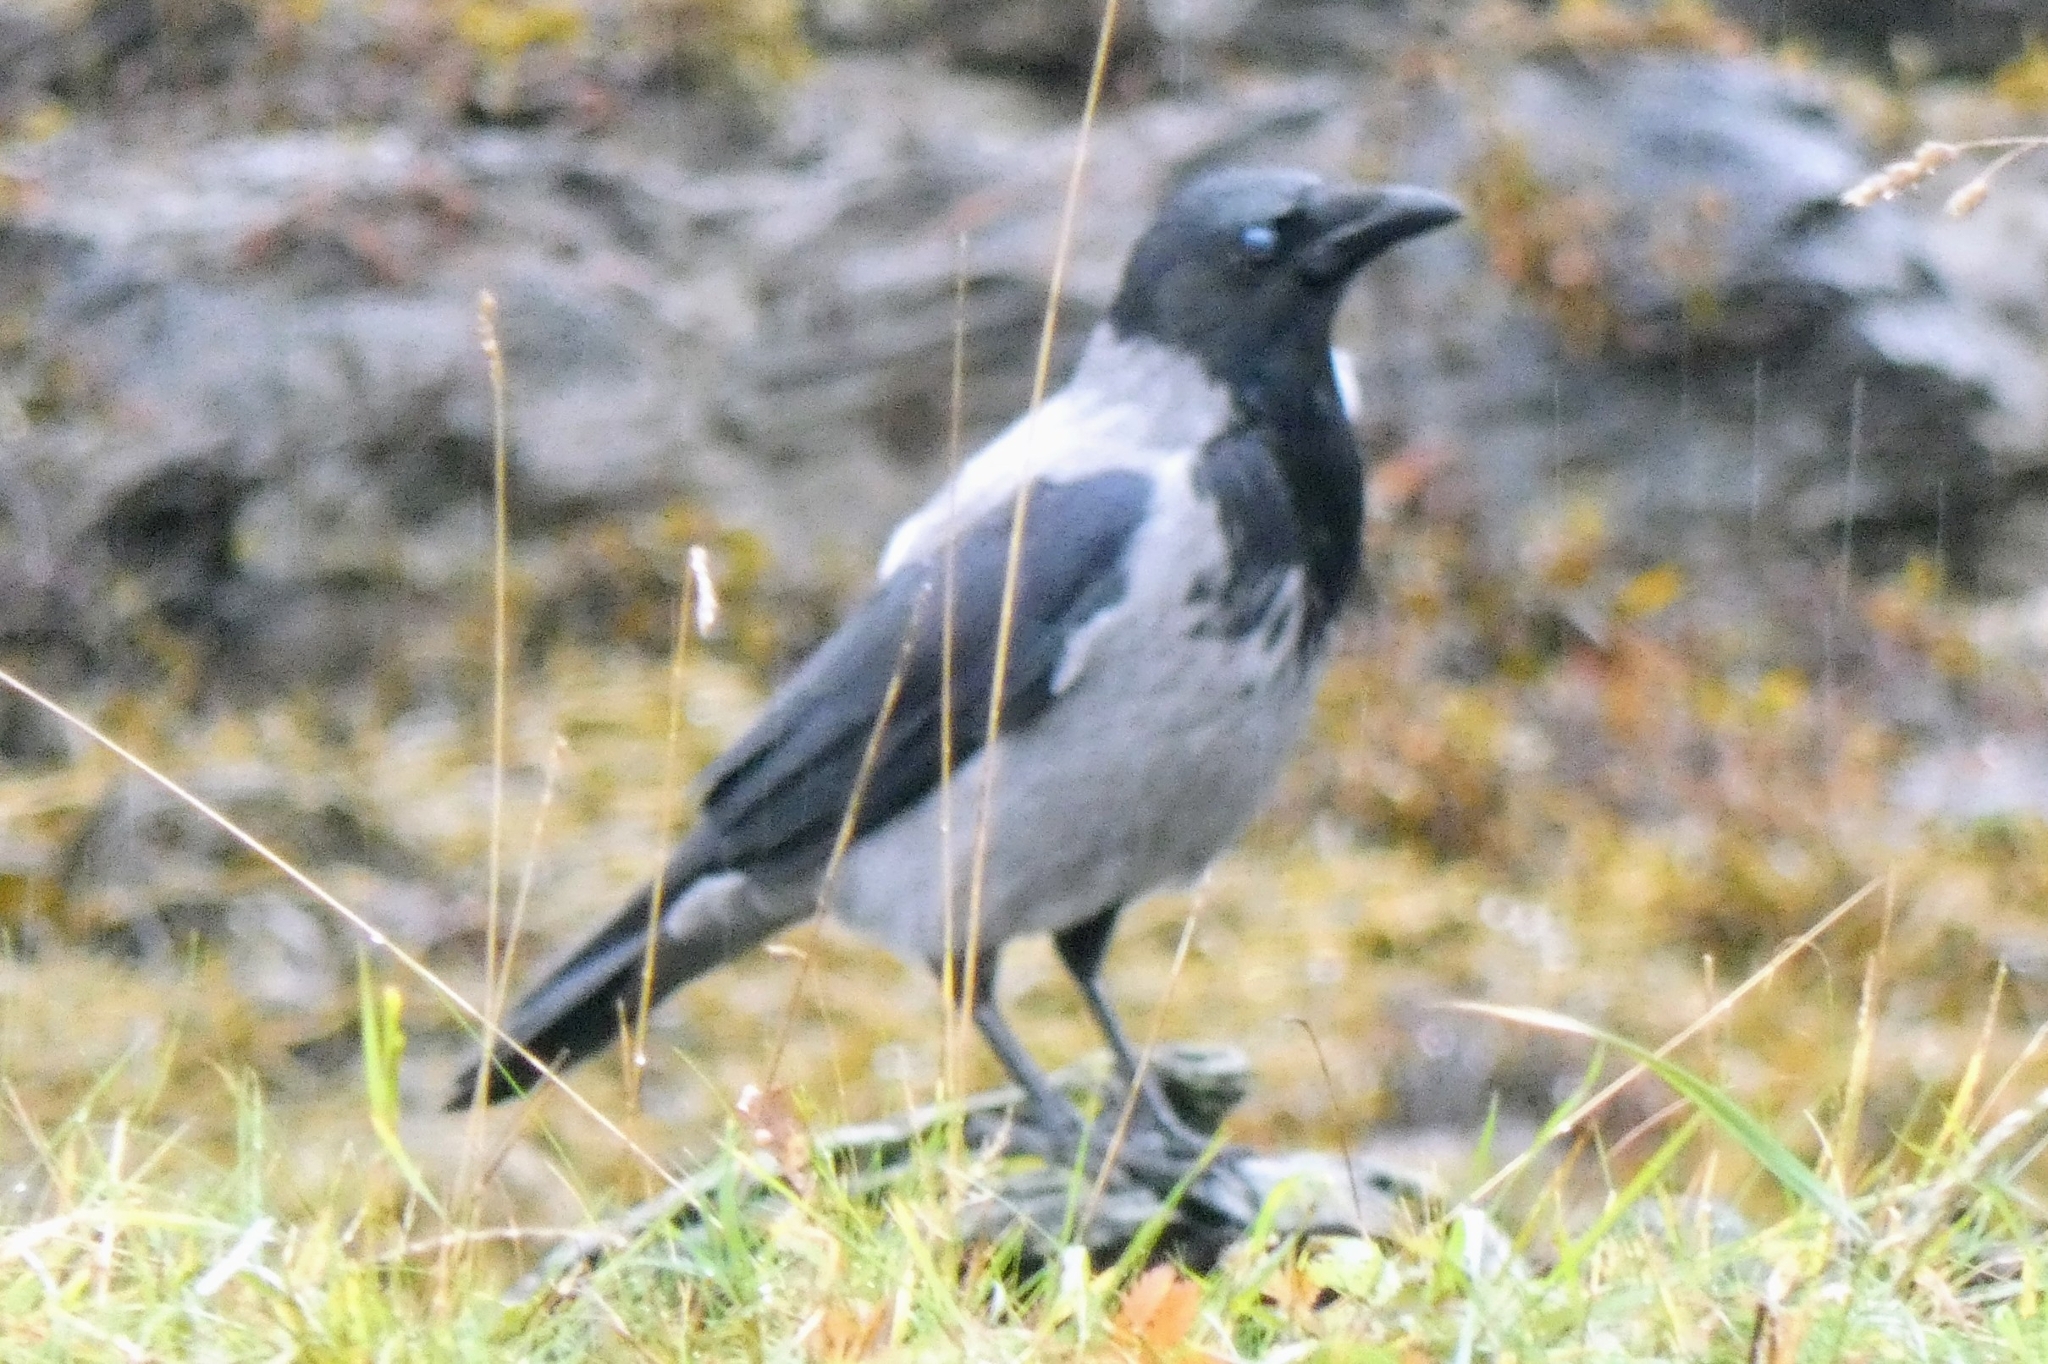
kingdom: Animalia
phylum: Chordata
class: Aves
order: Passeriformes
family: Corvidae
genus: Corvus
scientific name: Corvus cornix
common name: Hooded crow
